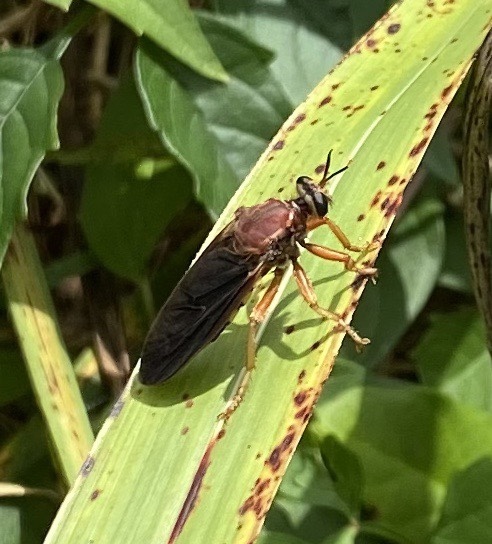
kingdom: Animalia
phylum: Arthropoda
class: Insecta
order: Diptera
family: Asilidae
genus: Prolepsis
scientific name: Prolepsis tristis
